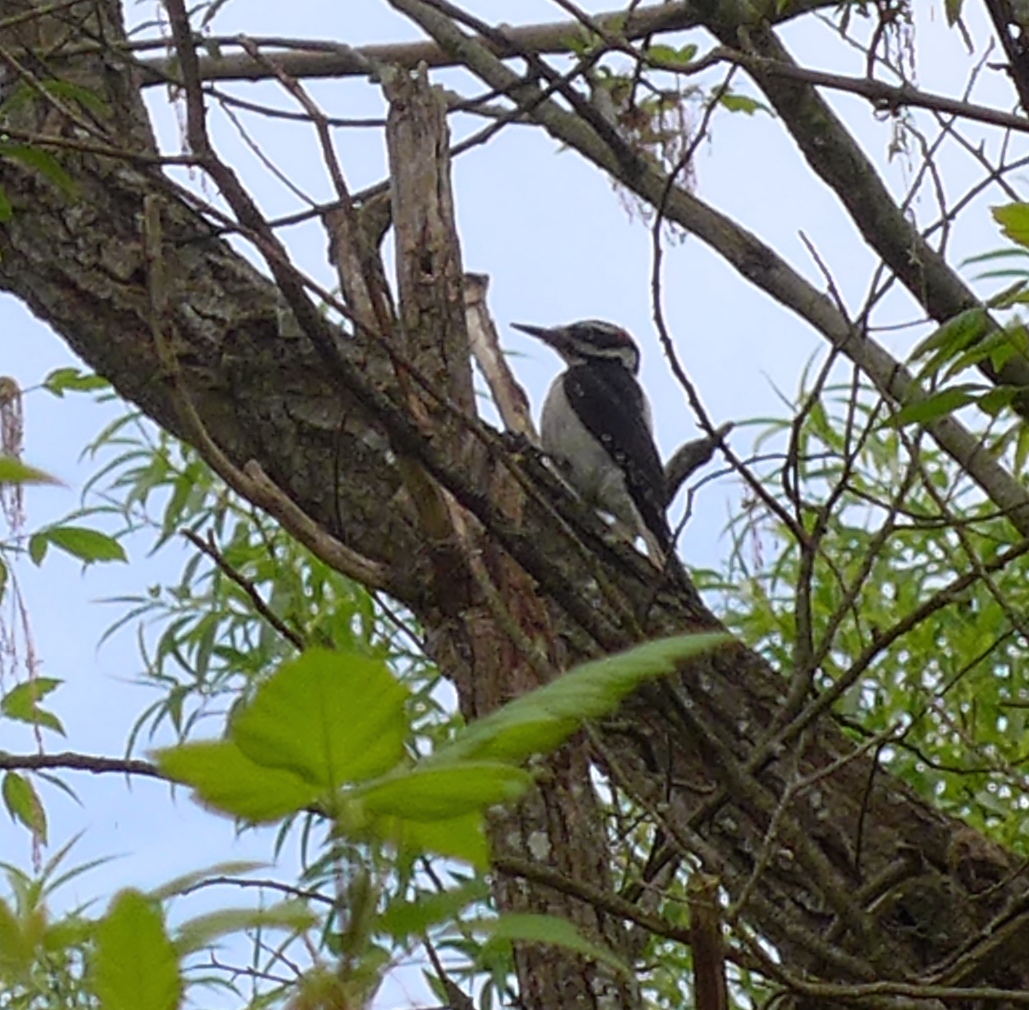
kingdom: Animalia
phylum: Chordata
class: Aves
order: Piciformes
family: Picidae
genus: Leuconotopicus
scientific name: Leuconotopicus villosus
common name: Hairy woodpecker
